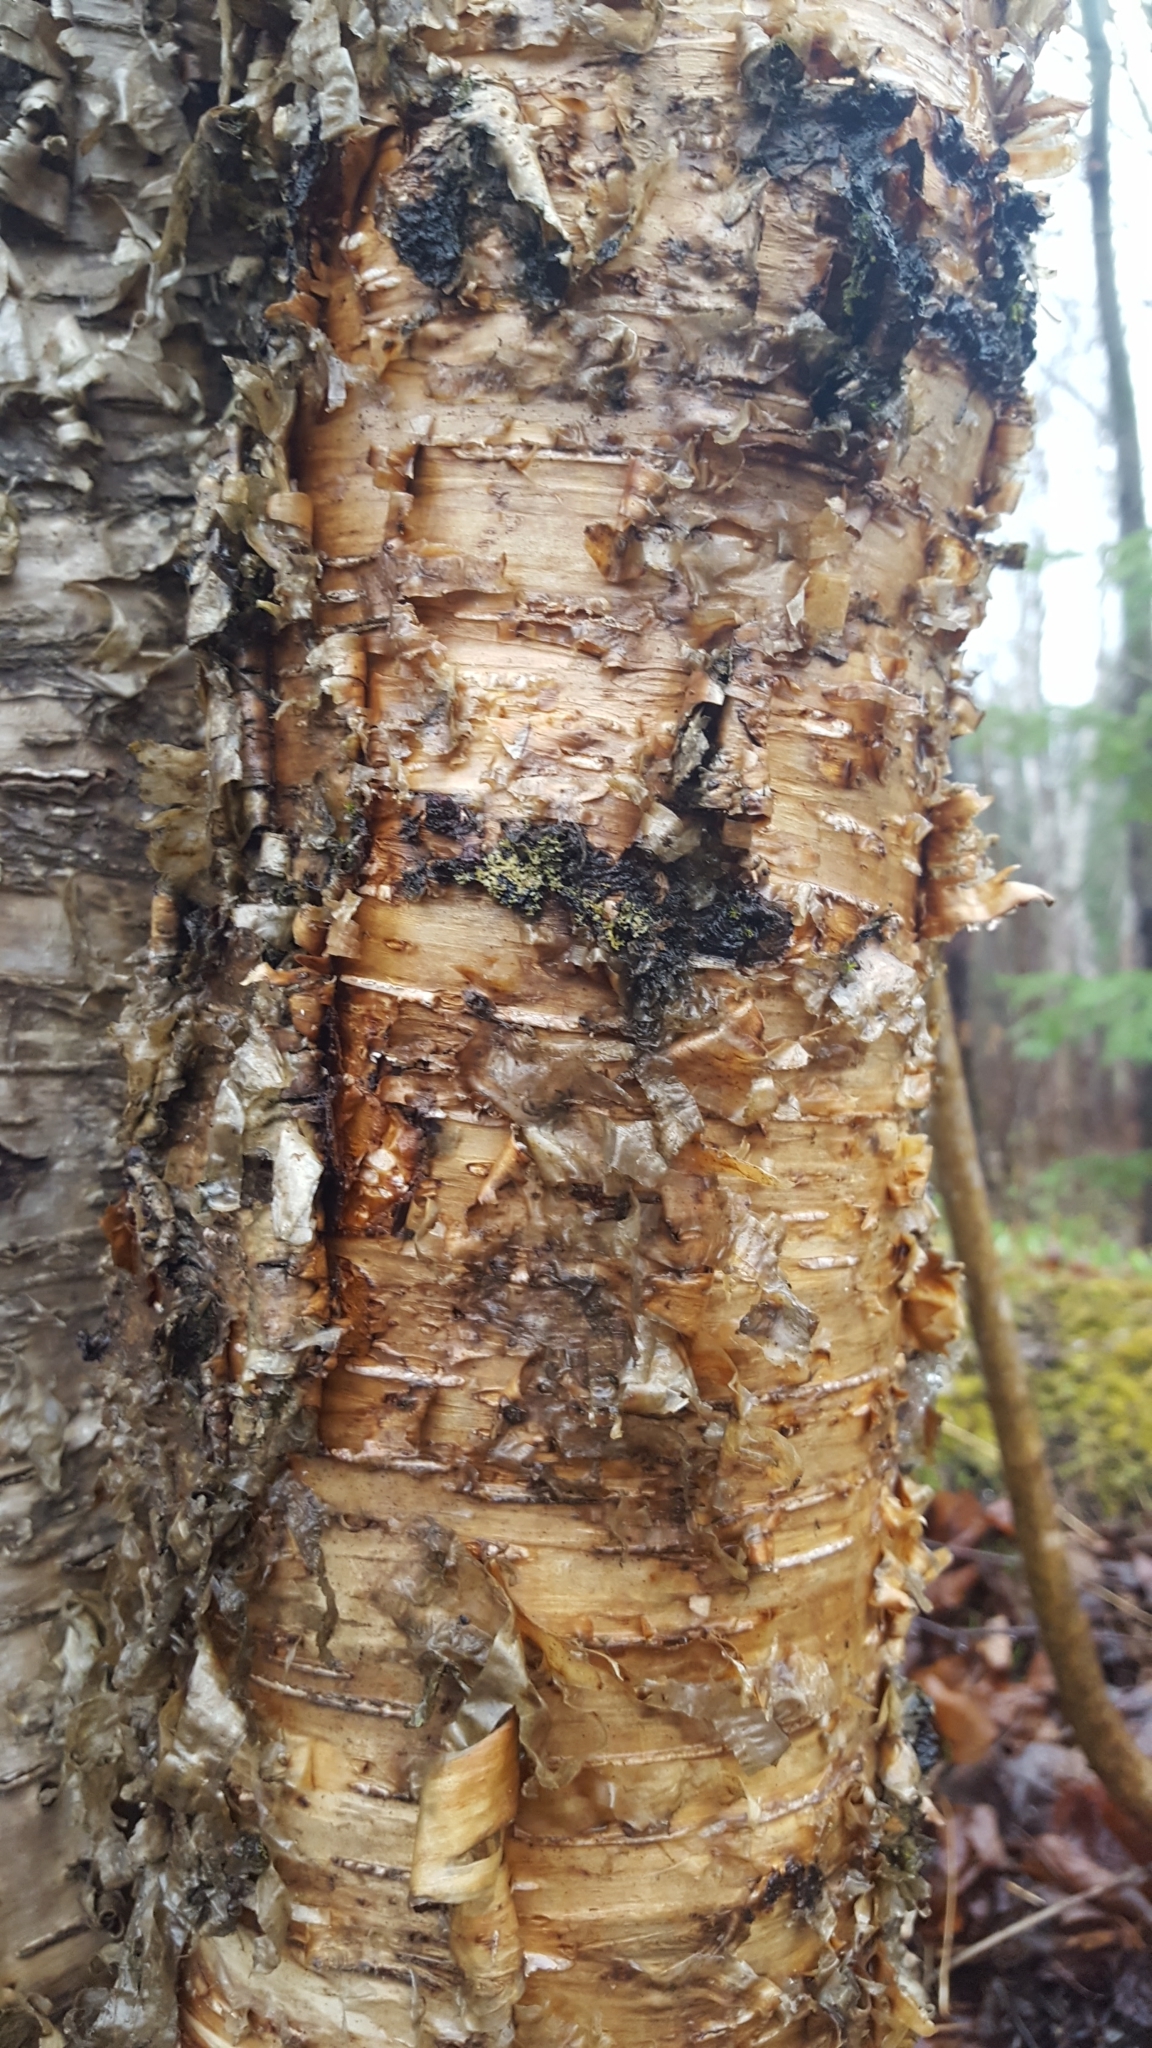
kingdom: Plantae
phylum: Tracheophyta
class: Magnoliopsida
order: Fagales
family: Betulaceae
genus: Betula
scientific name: Betula alleghaniensis
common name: Yellow birch
